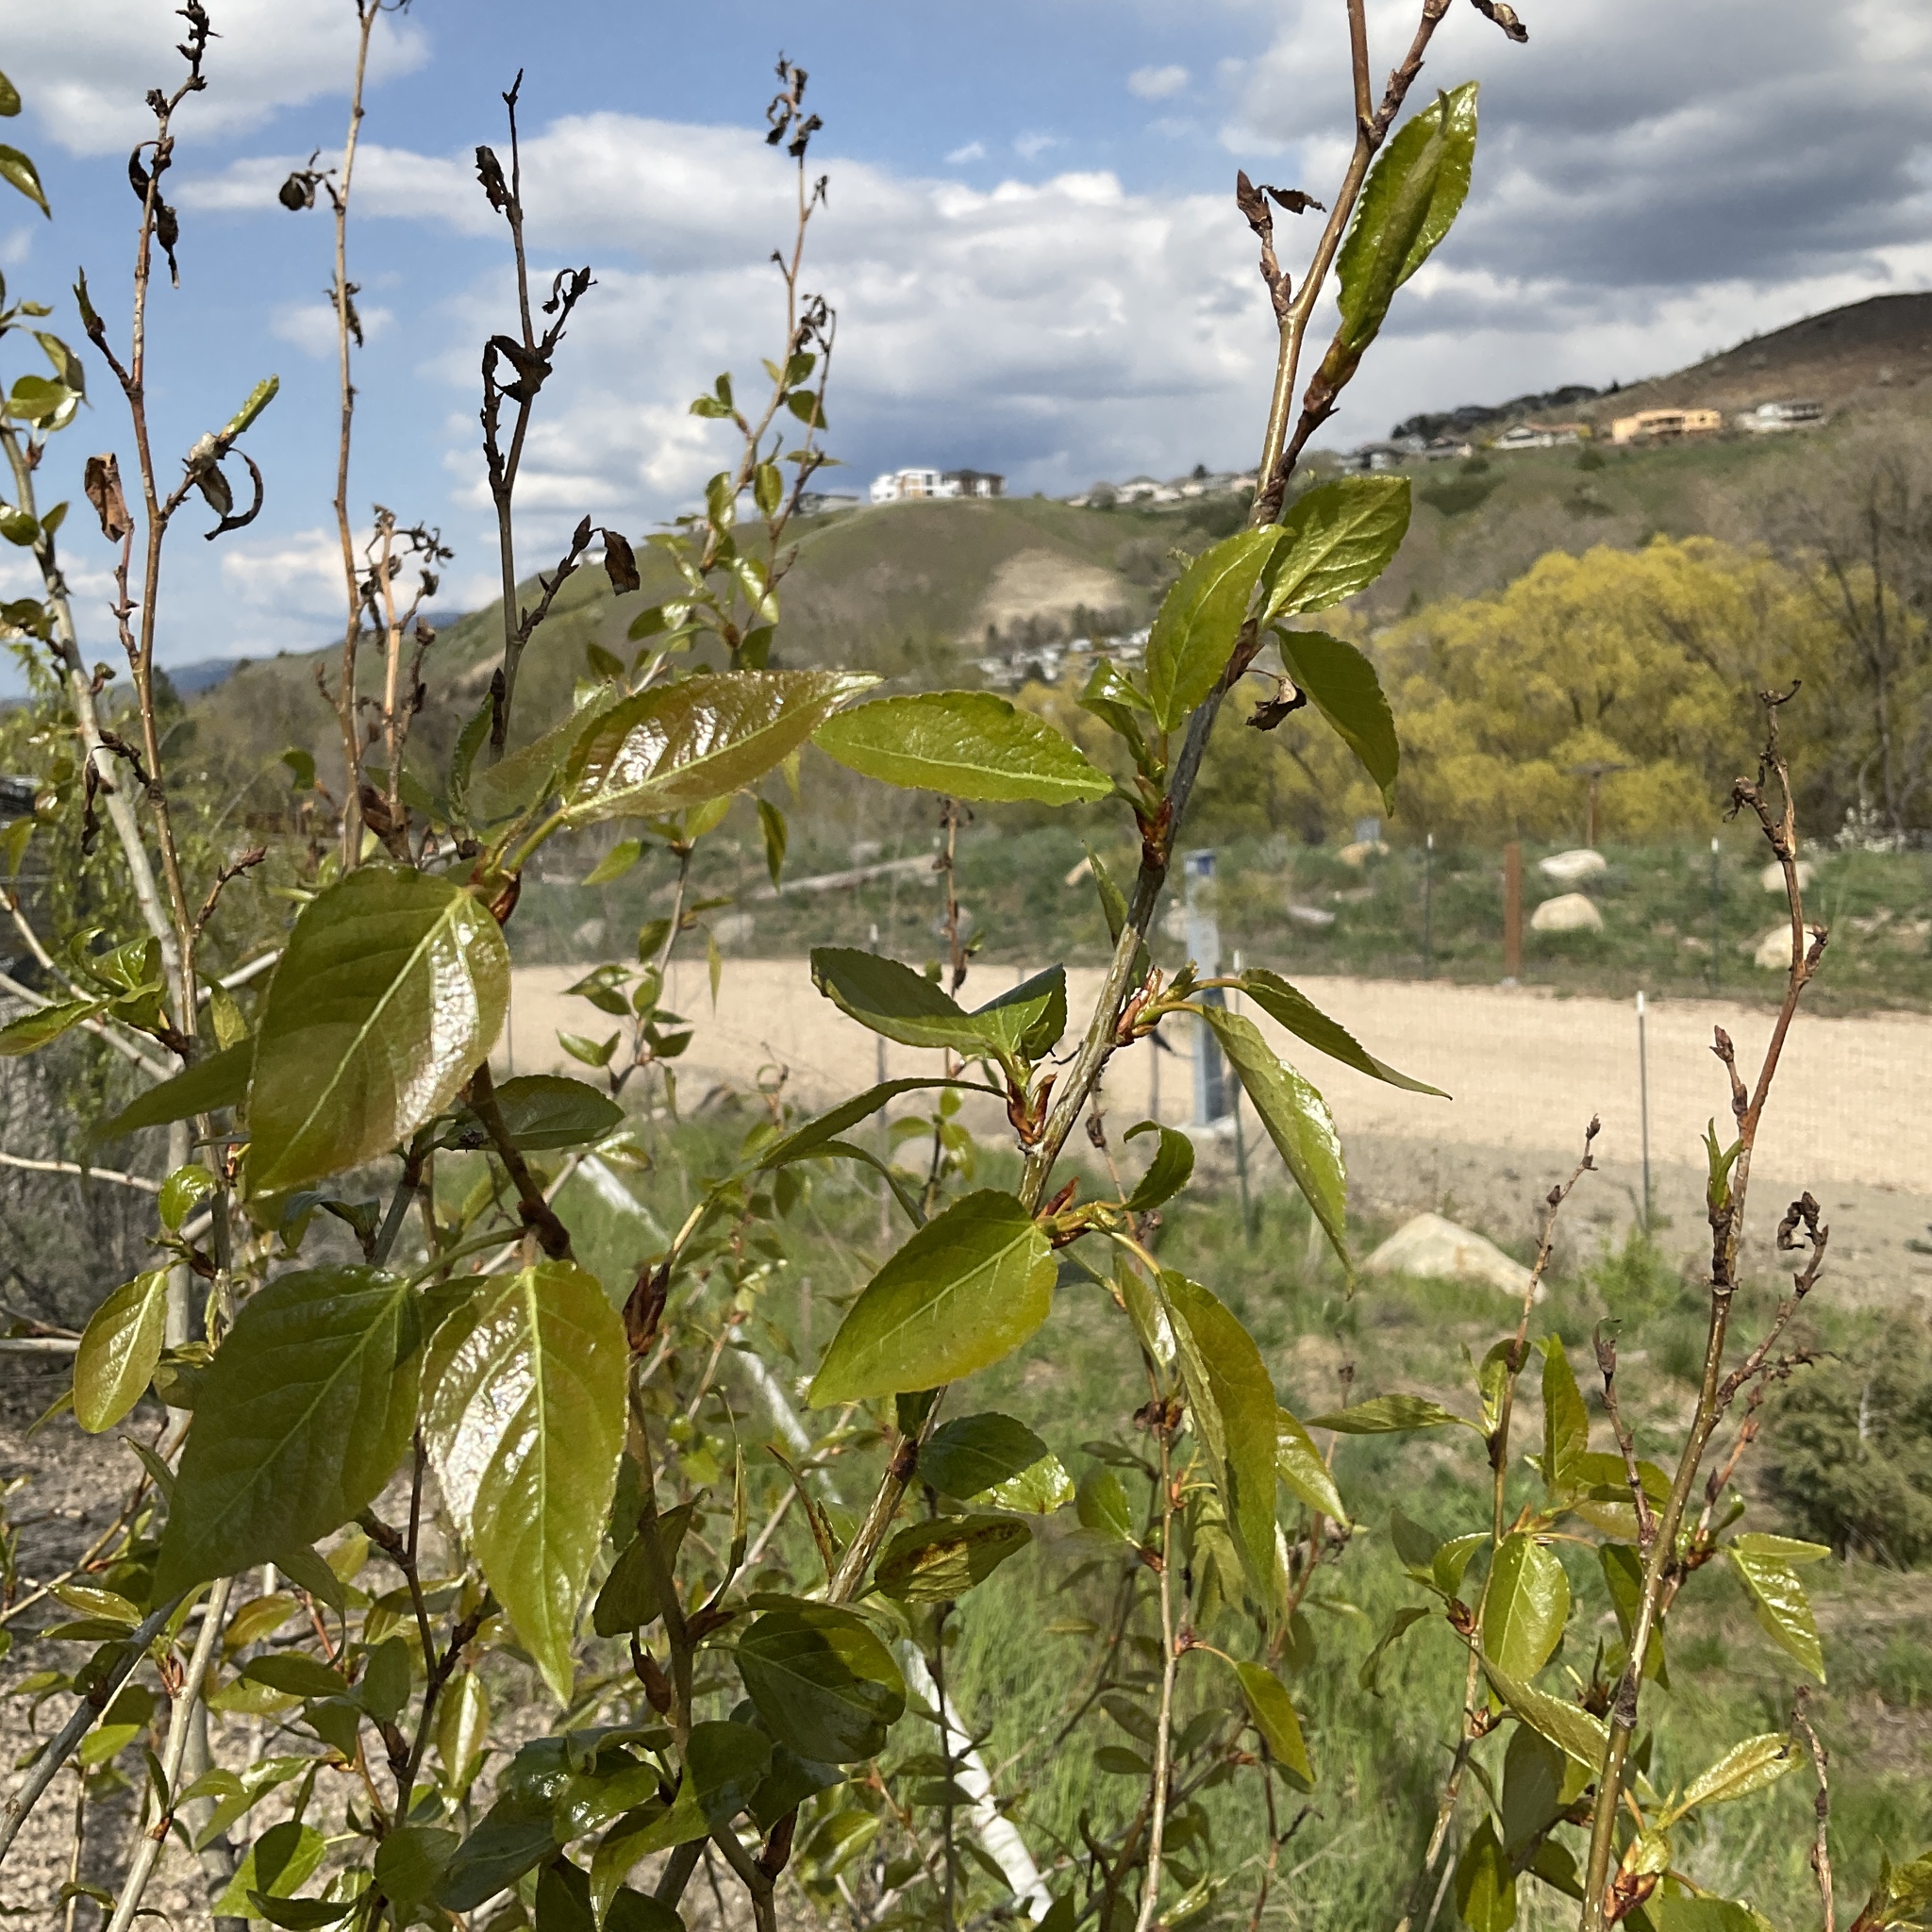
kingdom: Plantae
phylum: Tracheophyta
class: Magnoliopsida
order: Malpighiales
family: Salicaceae
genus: Populus
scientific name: Populus trichocarpa
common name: Black cottonwood
